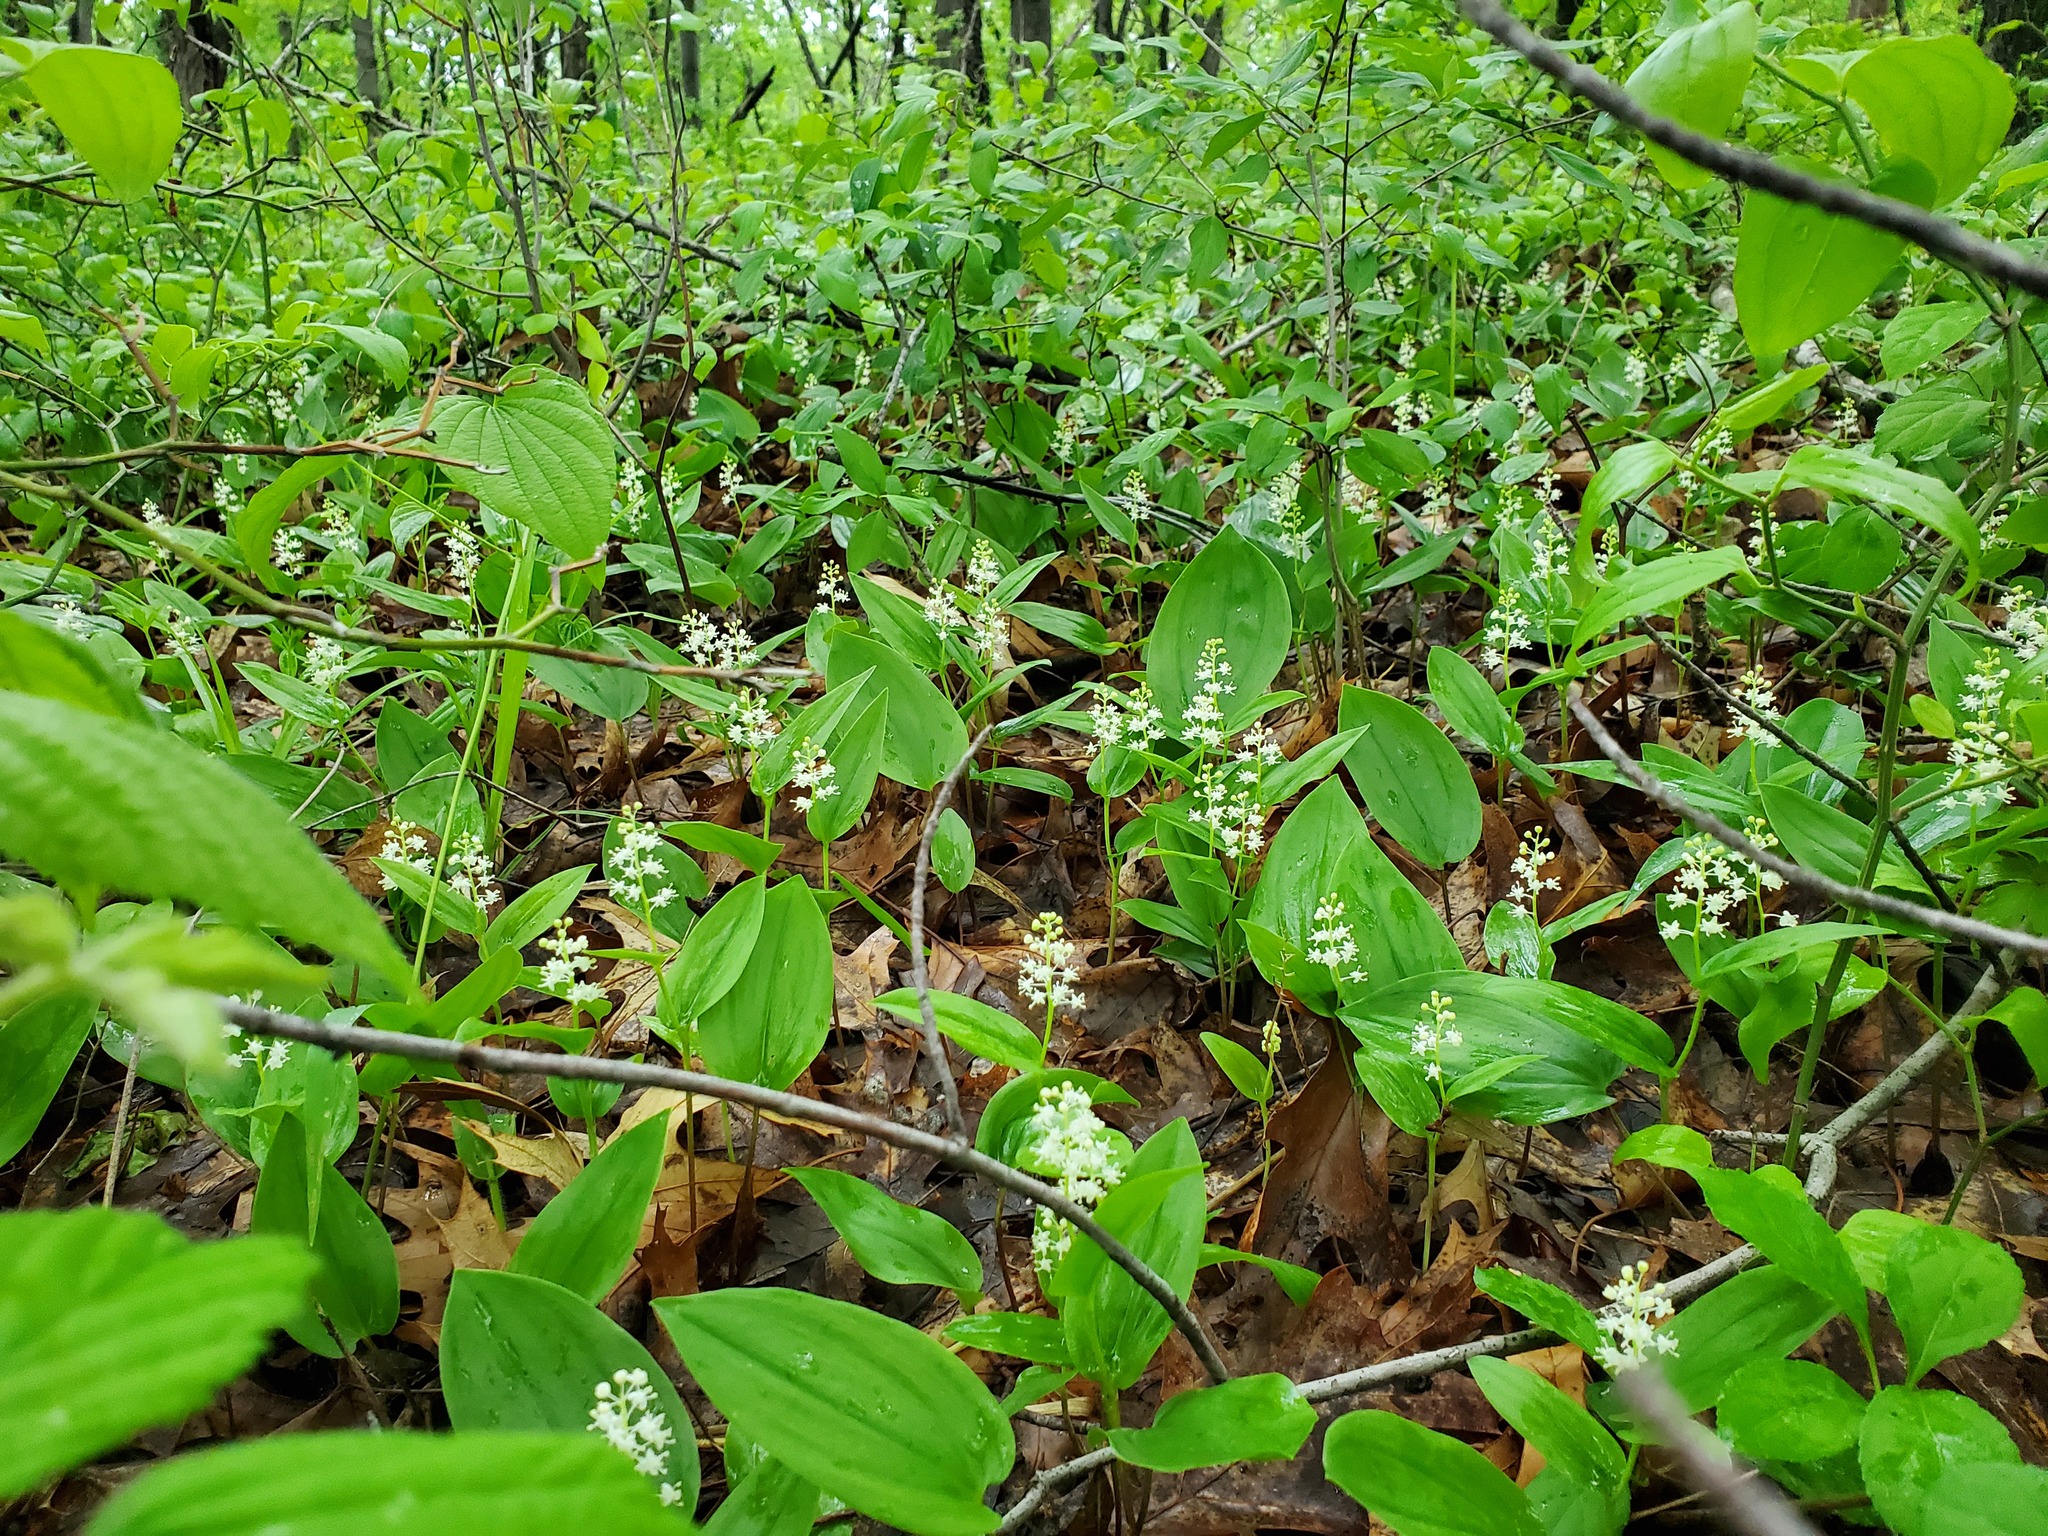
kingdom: Plantae
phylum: Tracheophyta
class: Liliopsida
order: Asparagales
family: Asparagaceae
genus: Maianthemum
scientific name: Maianthemum canadense
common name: False lily-of-the-valley
